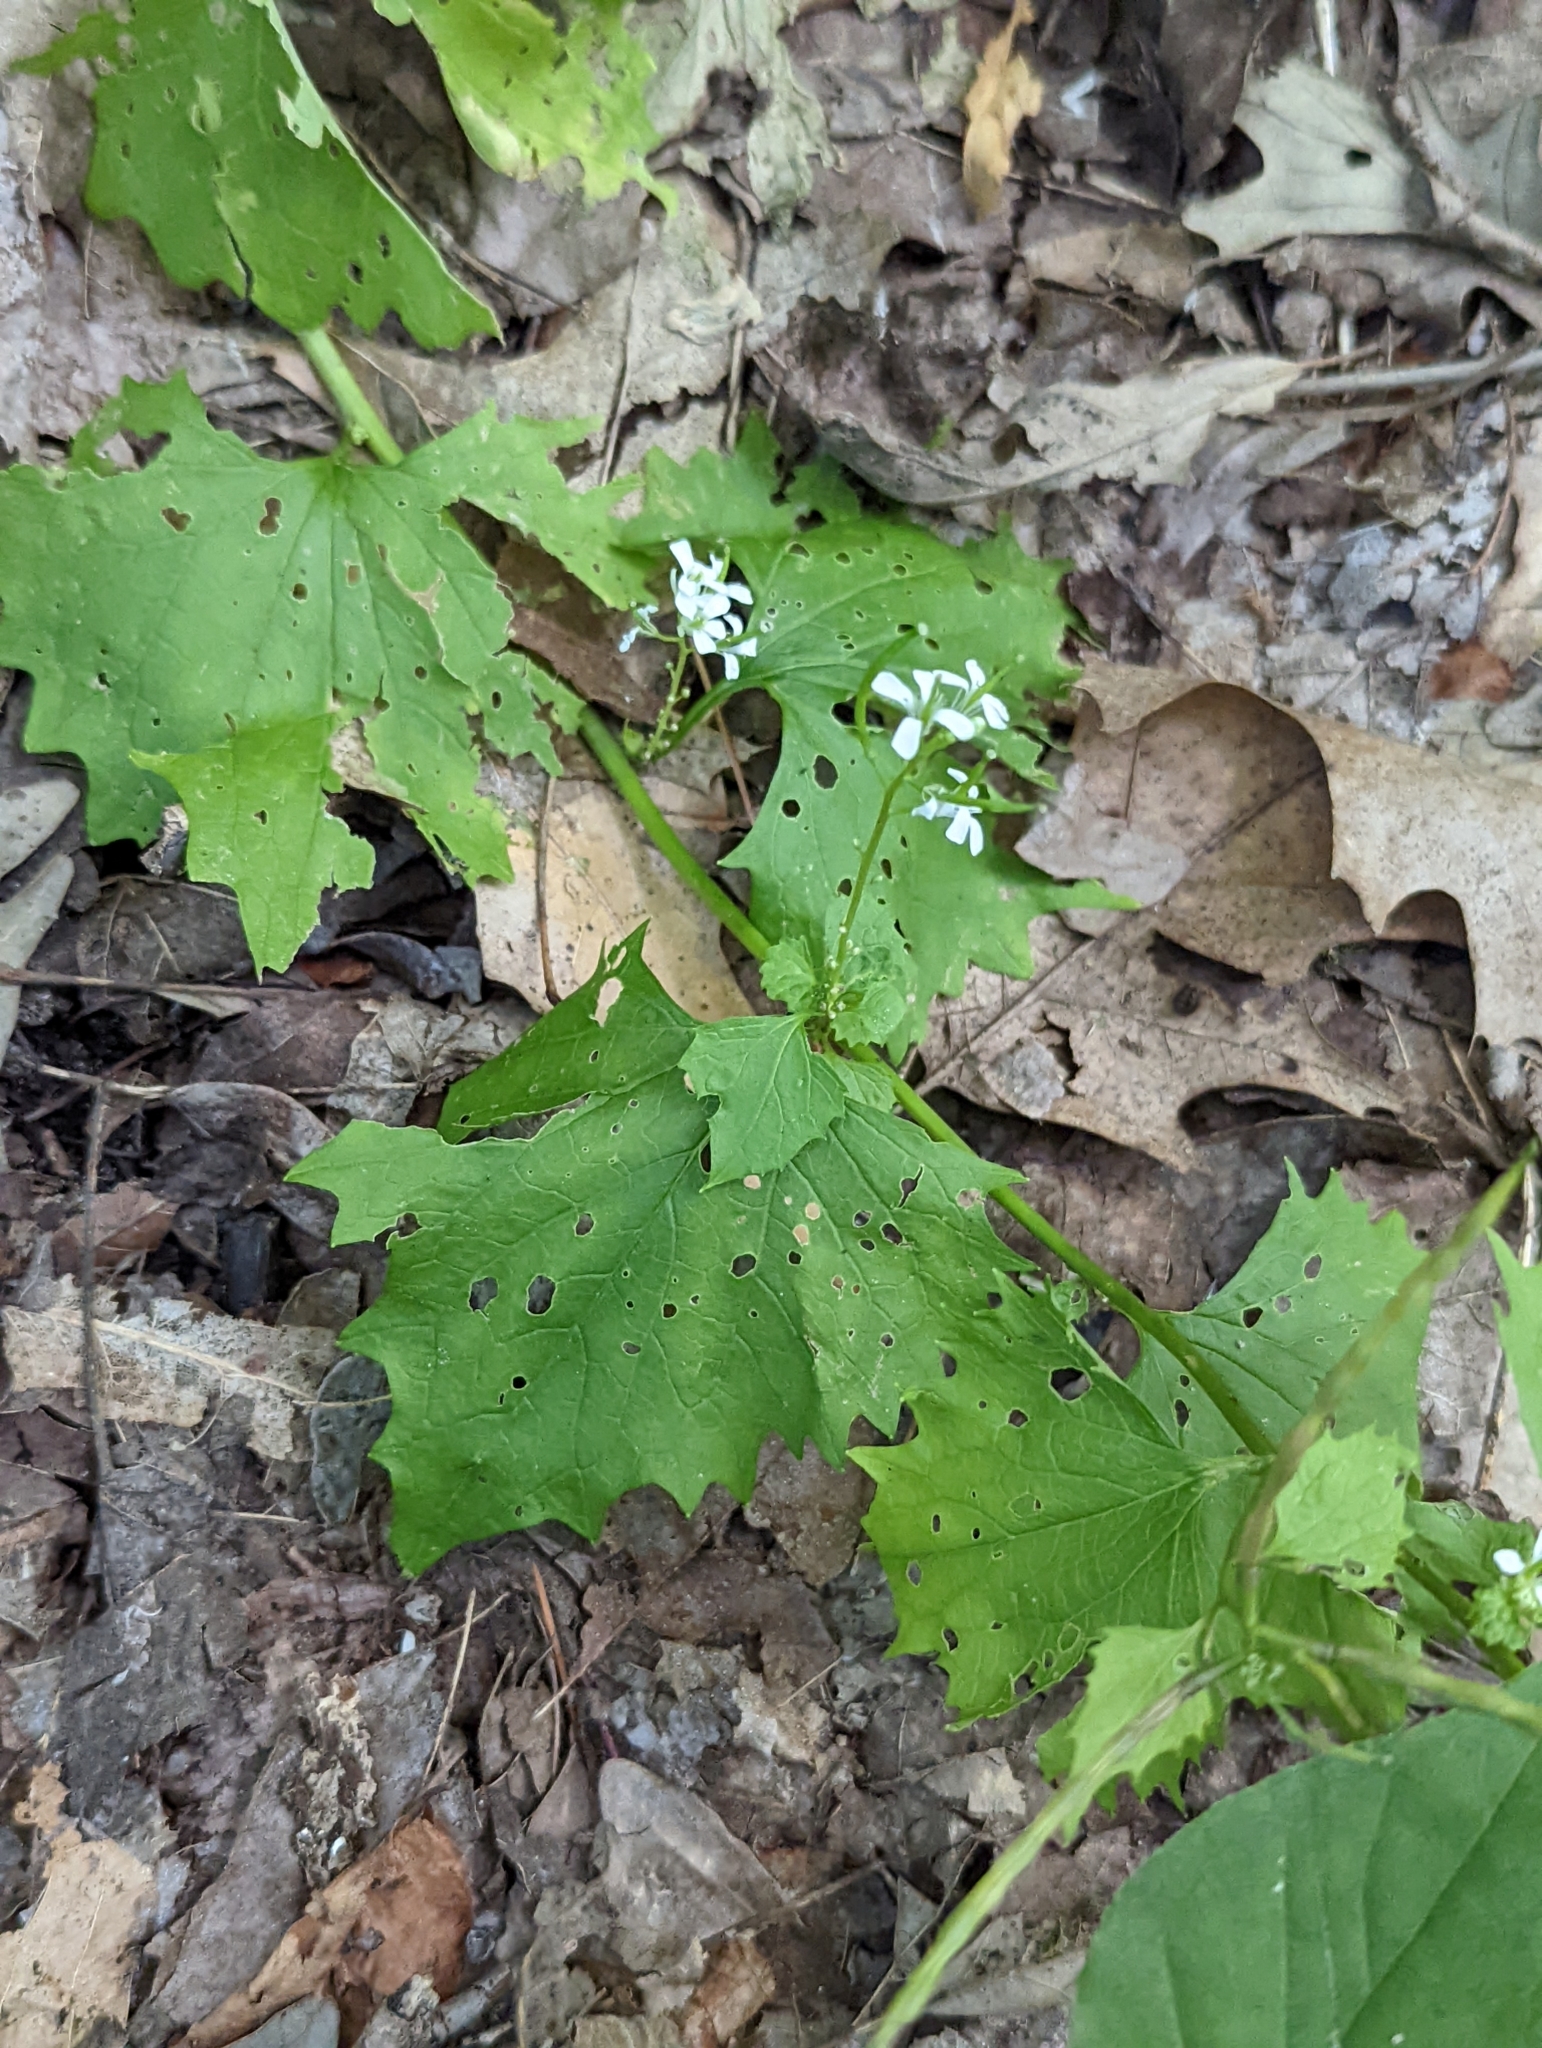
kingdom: Plantae
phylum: Tracheophyta
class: Magnoliopsida
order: Brassicales
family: Brassicaceae
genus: Alliaria
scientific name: Alliaria petiolata
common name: Garlic mustard
